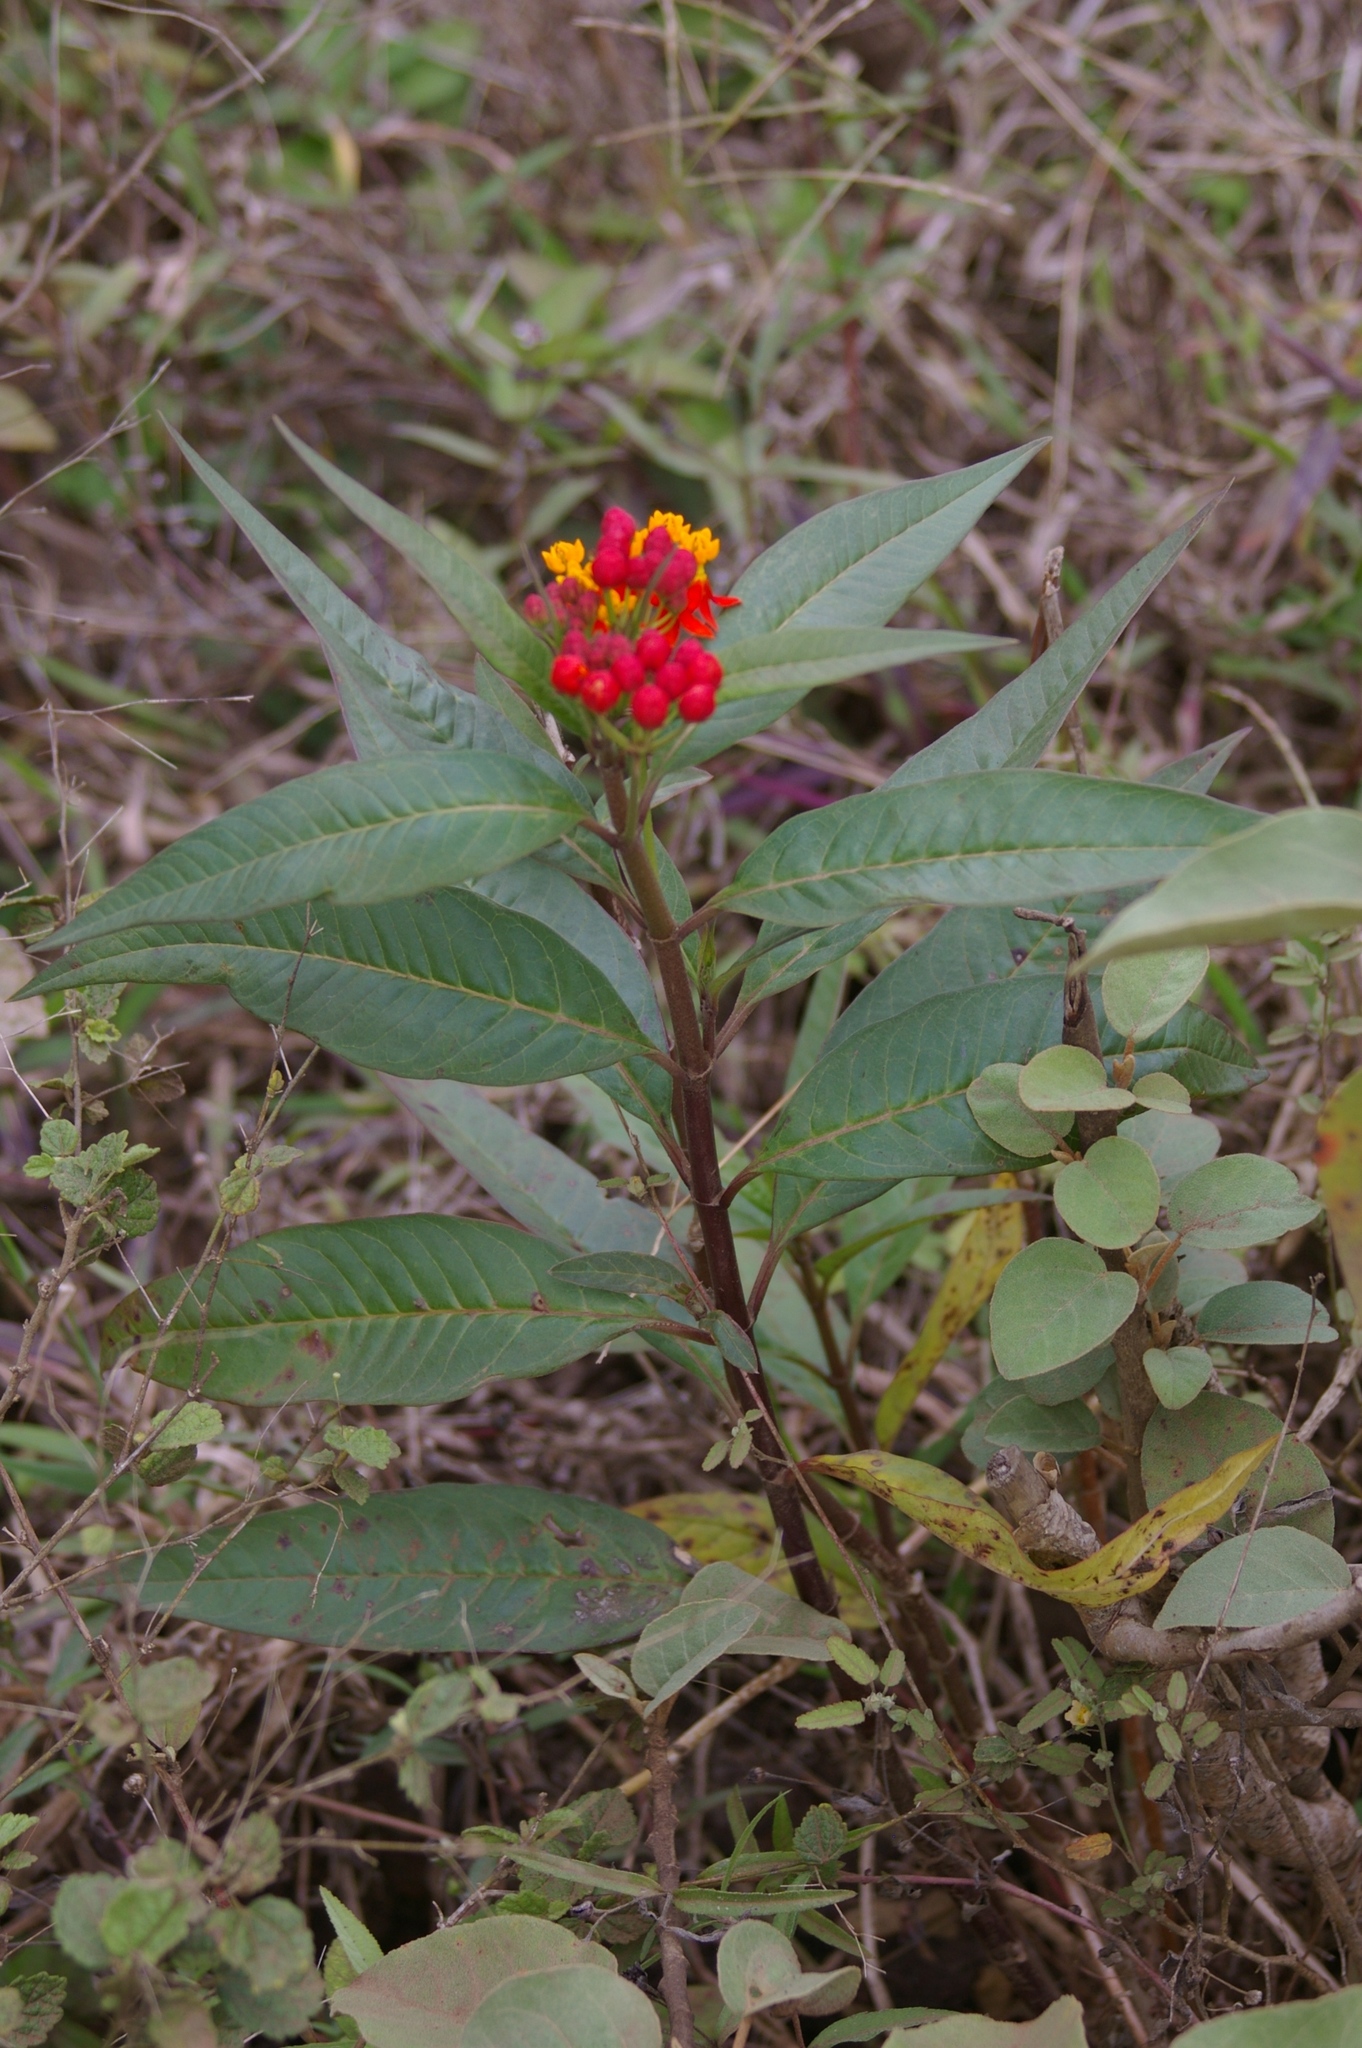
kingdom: Plantae
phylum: Tracheophyta
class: Magnoliopsida
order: Gentianales
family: Apocynaceae
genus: Asclepias
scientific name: Asclepias curassavica
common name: Bloodflower
